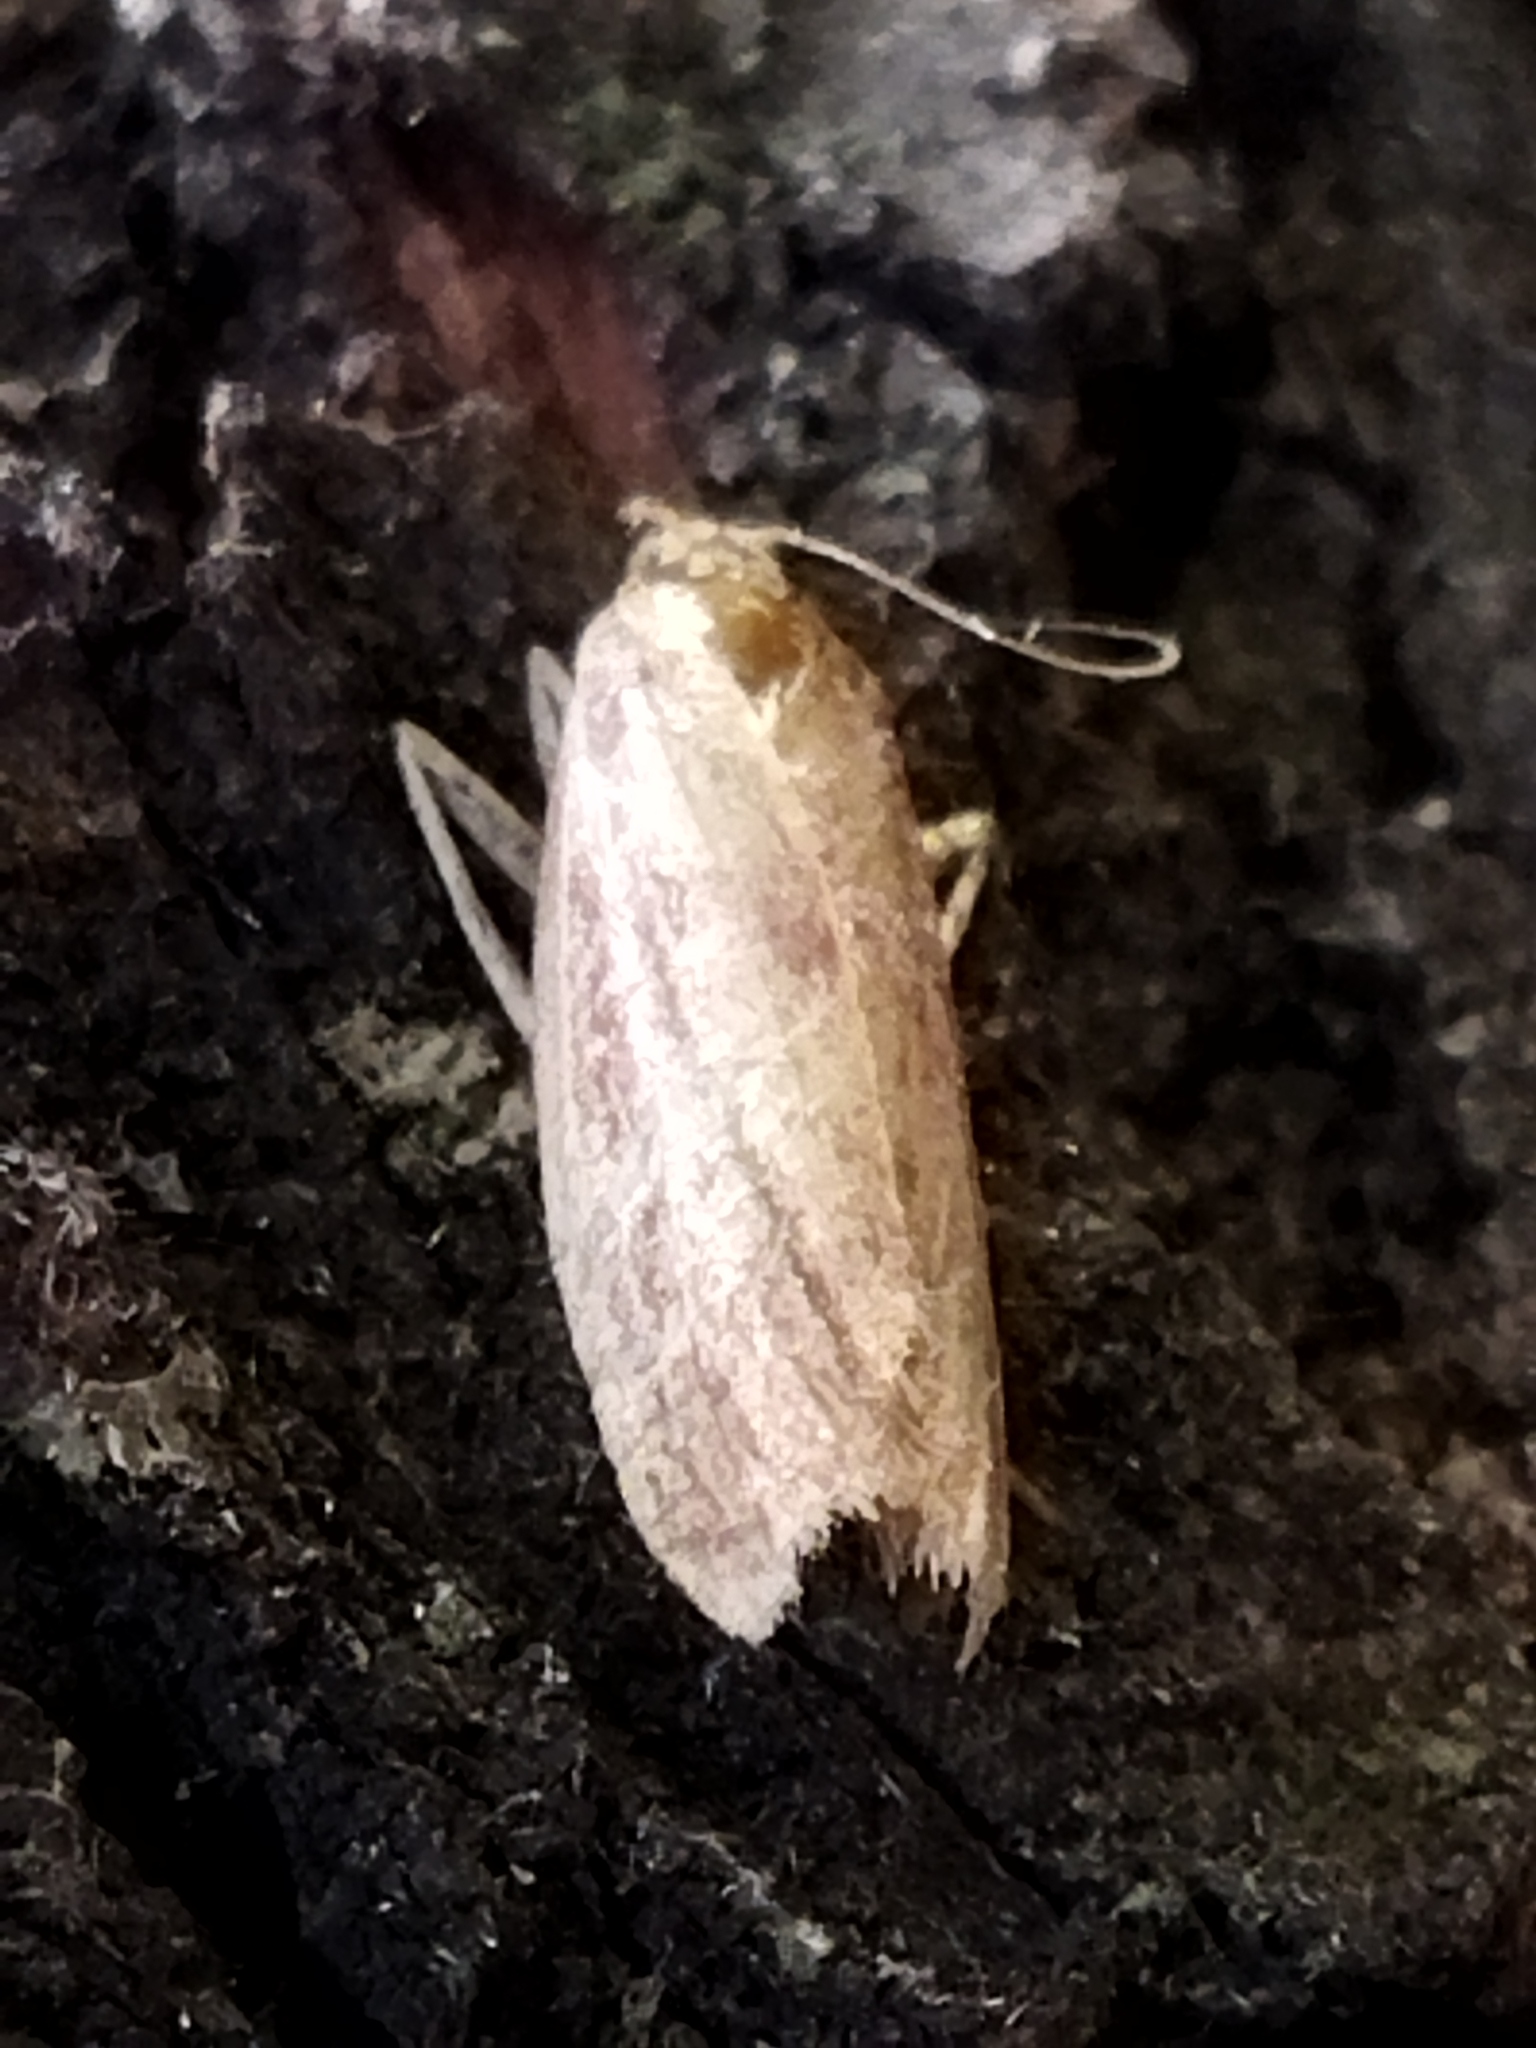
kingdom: Animalia
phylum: Arthropoda
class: Insecta
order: Lepidoptera
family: Pyralidae
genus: Ematheudes
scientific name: Ematheudes punctellus
